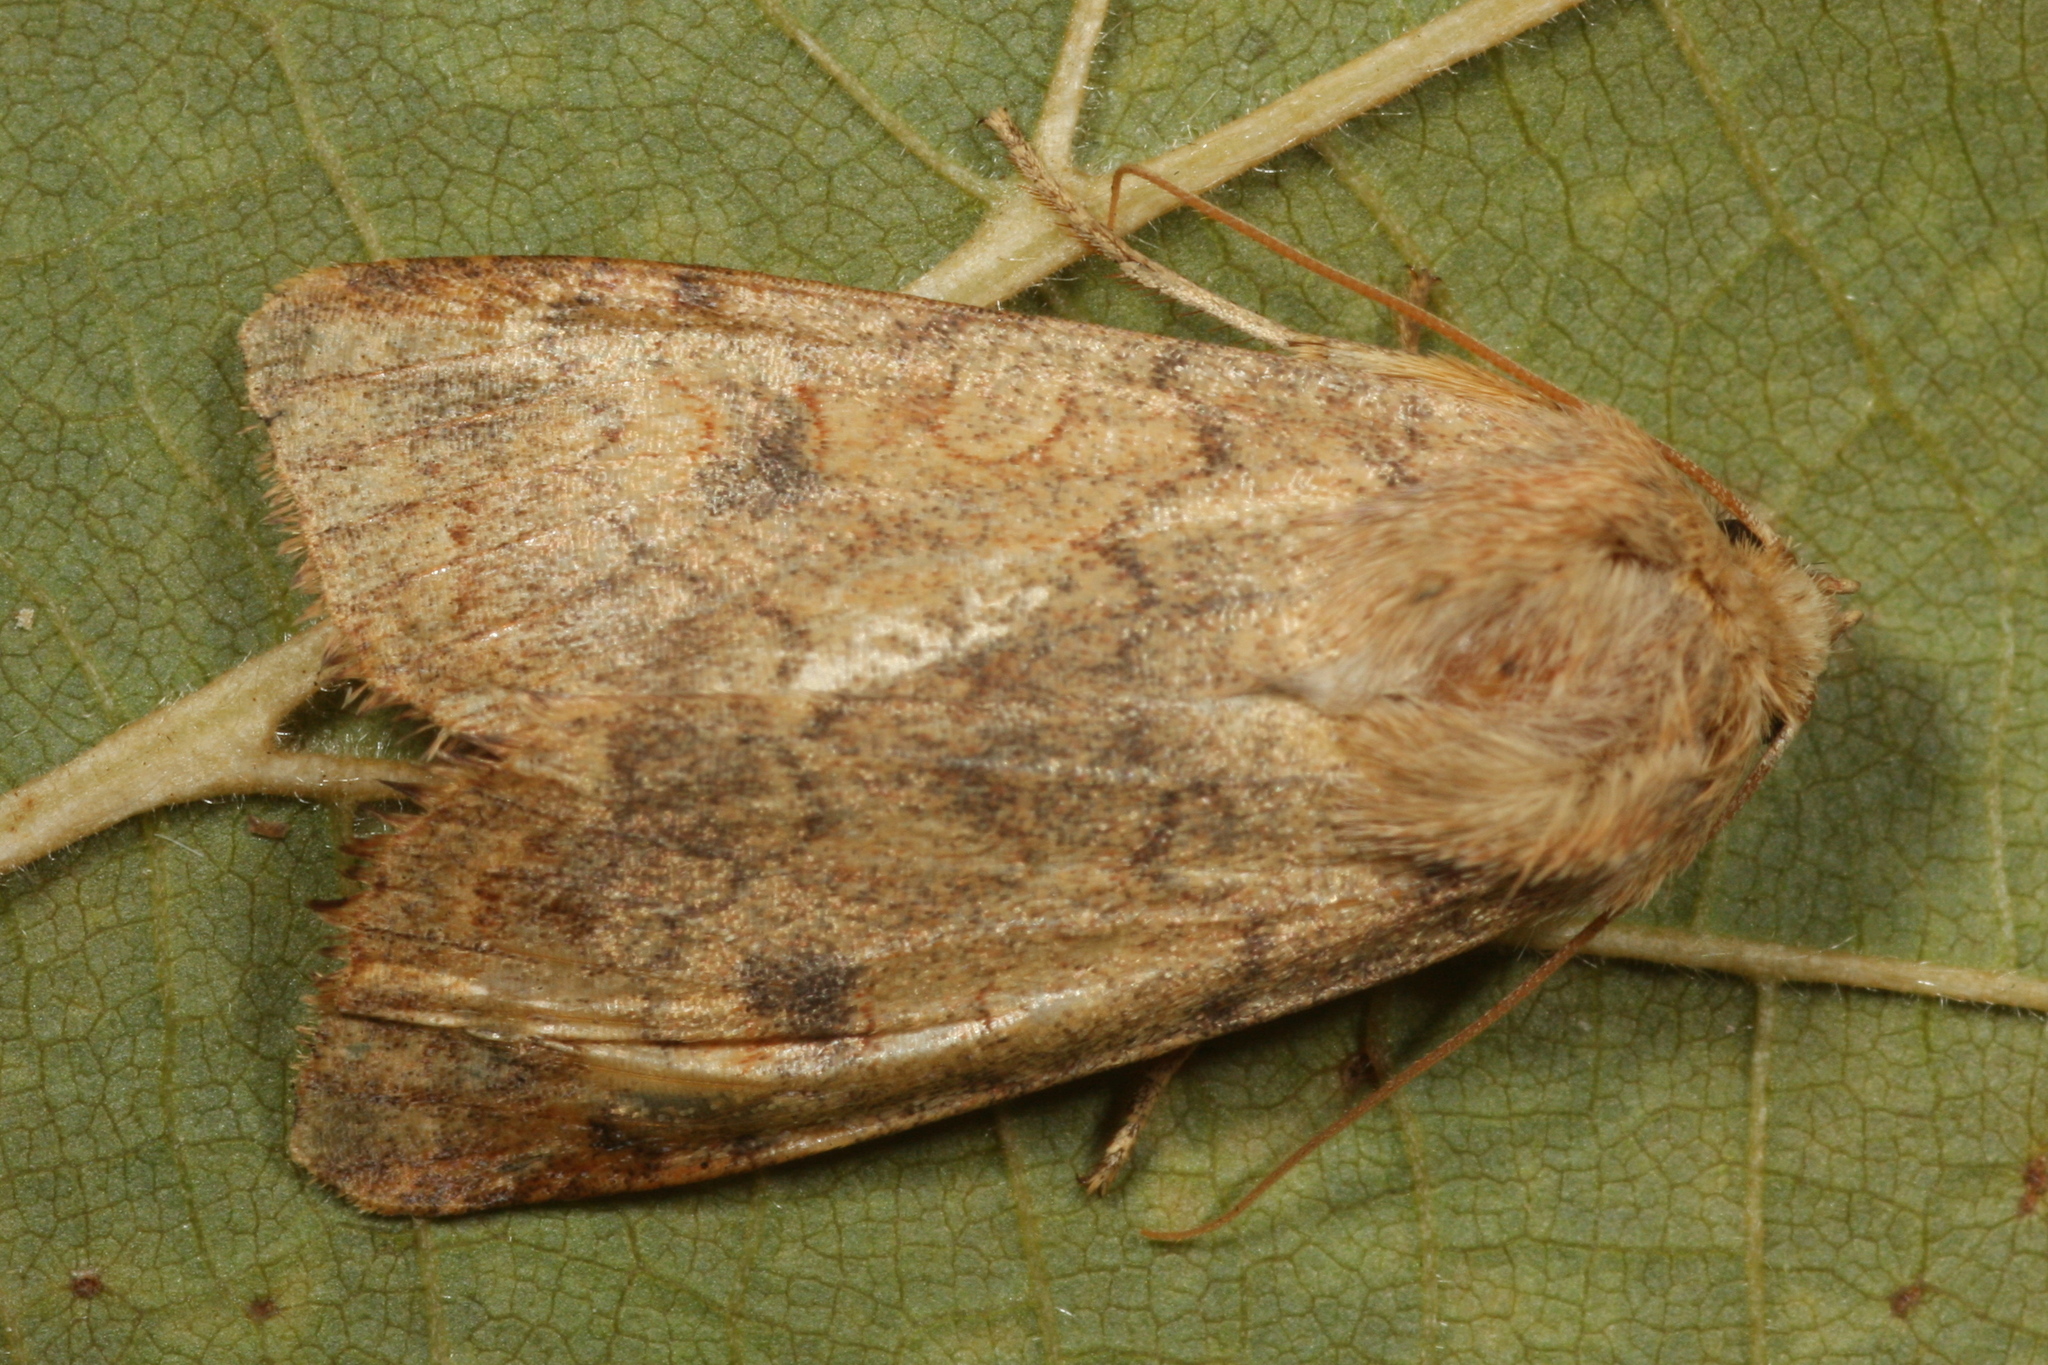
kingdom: Animalia
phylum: Arthropoda
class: Insecta
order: Lepidoptera
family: Noctuidae
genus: Sunira
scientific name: Sunira circellaris
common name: Brick
